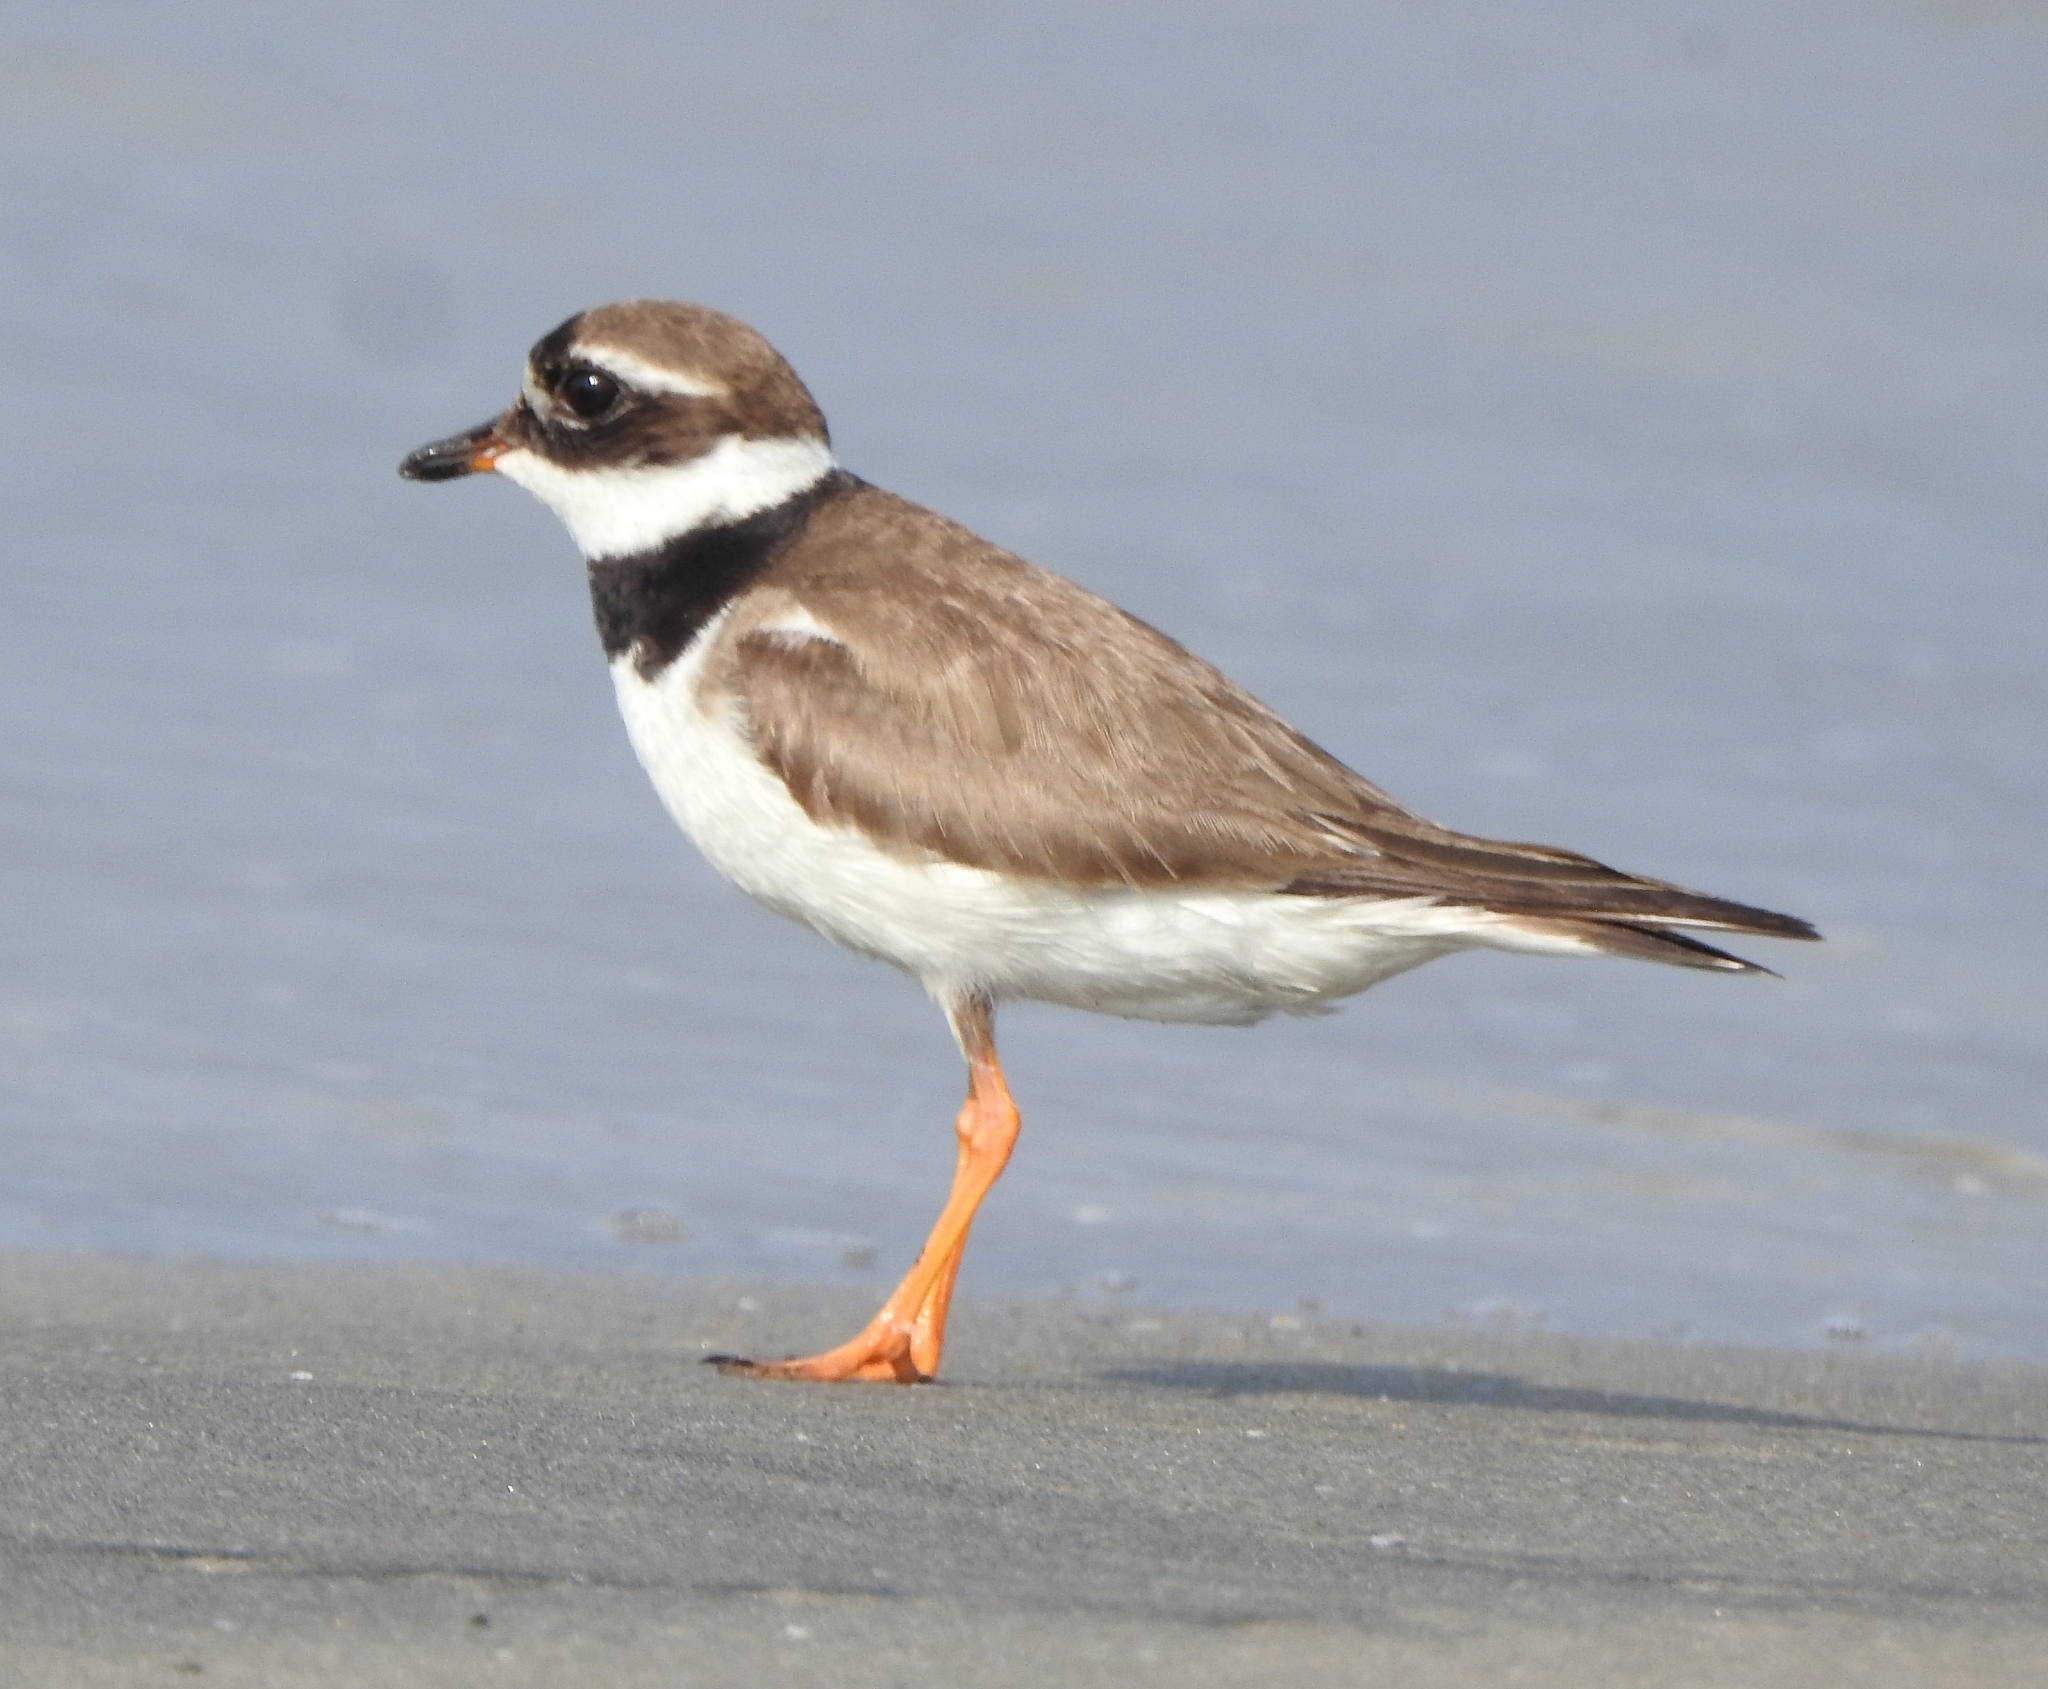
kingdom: Animalia
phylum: Chordata
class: Aves
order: Charadriiformes
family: Charadriidae
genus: Charadrius
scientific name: Charadrius hiaticula
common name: Common ringed plover
